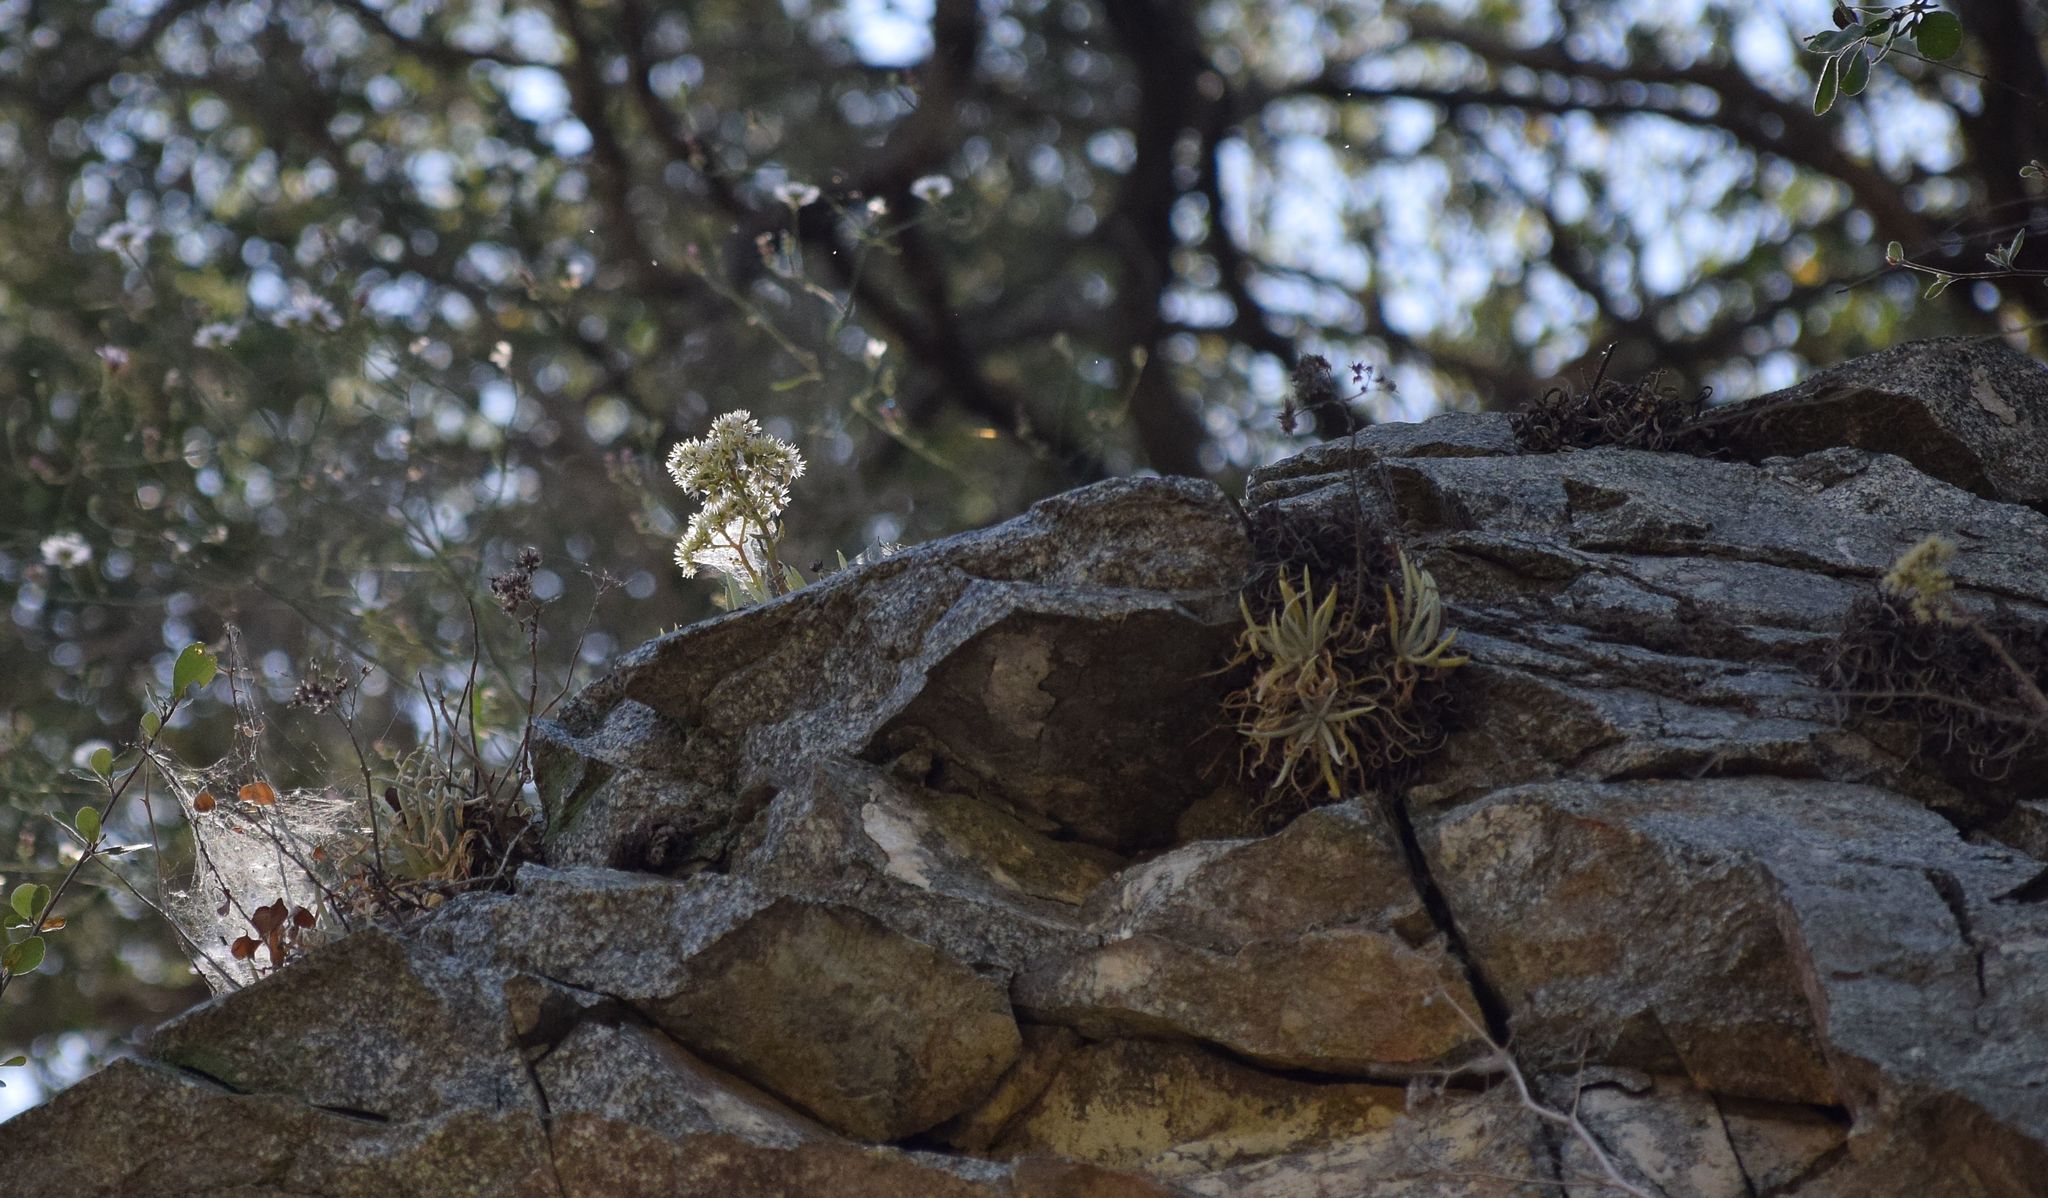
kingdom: Plantae
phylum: Tracheophyta
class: Magnoliopsida
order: Saxifragales
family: Crassulaceae
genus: Dudleya
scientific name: Dudleya densiflora
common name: San gabriel mountains dudleya
